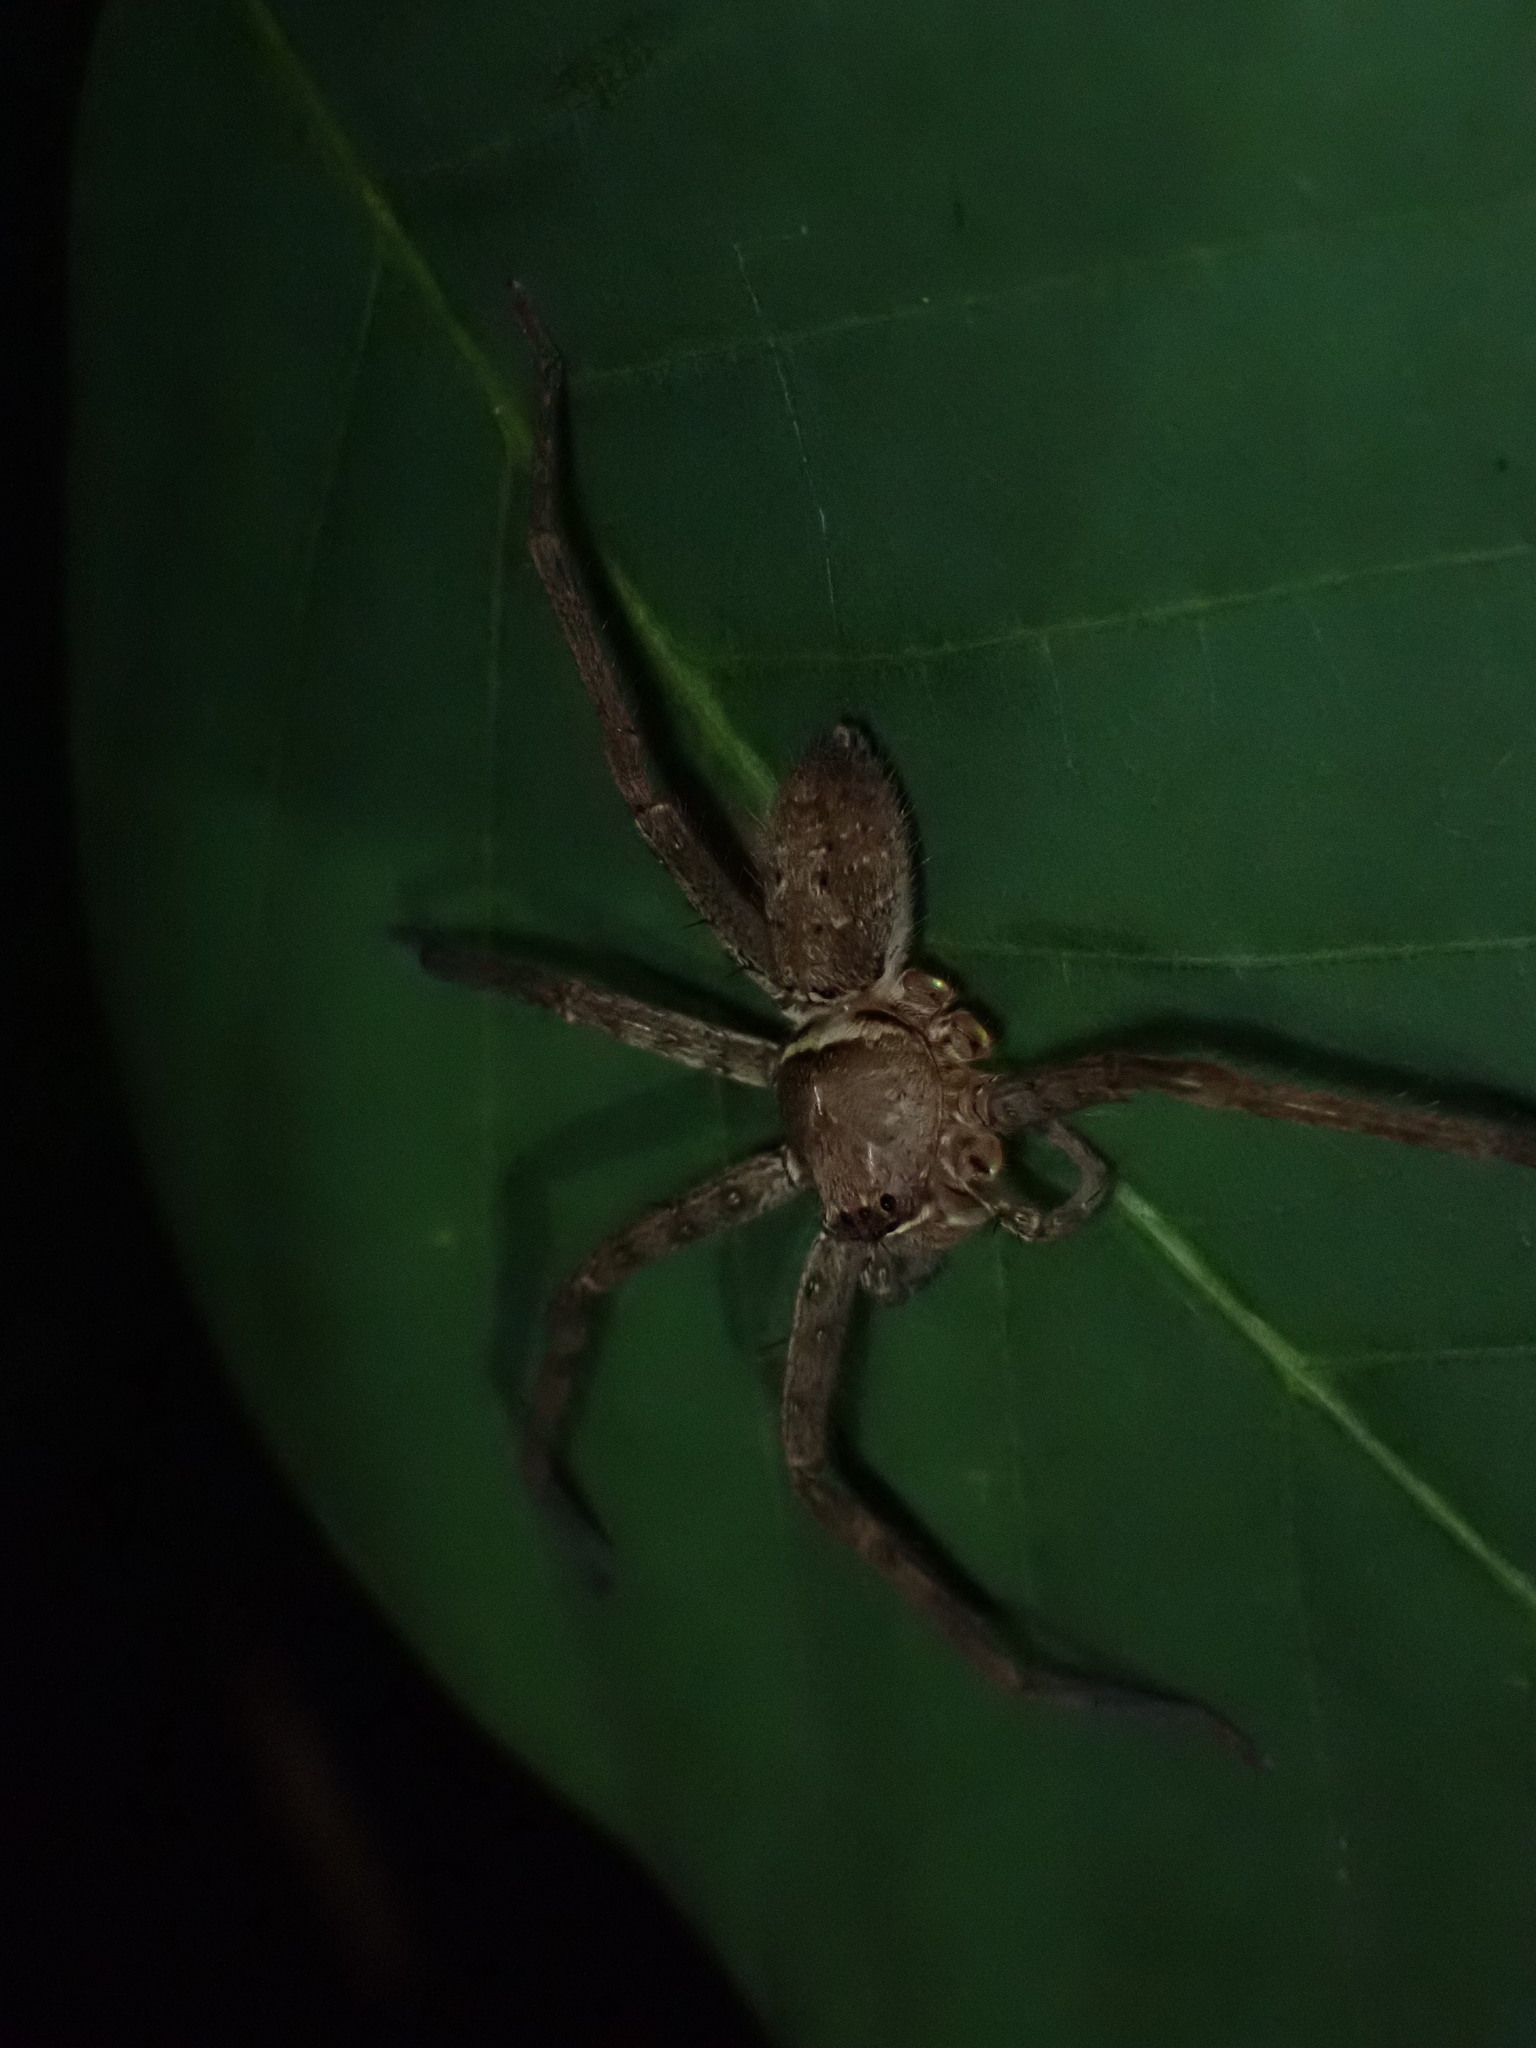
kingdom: Animalia
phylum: Arthropoda
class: Arachnida
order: Araneae
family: Sparassidae
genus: Heteropoda
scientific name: Heteropoda venatoria
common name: Huntsman spider
